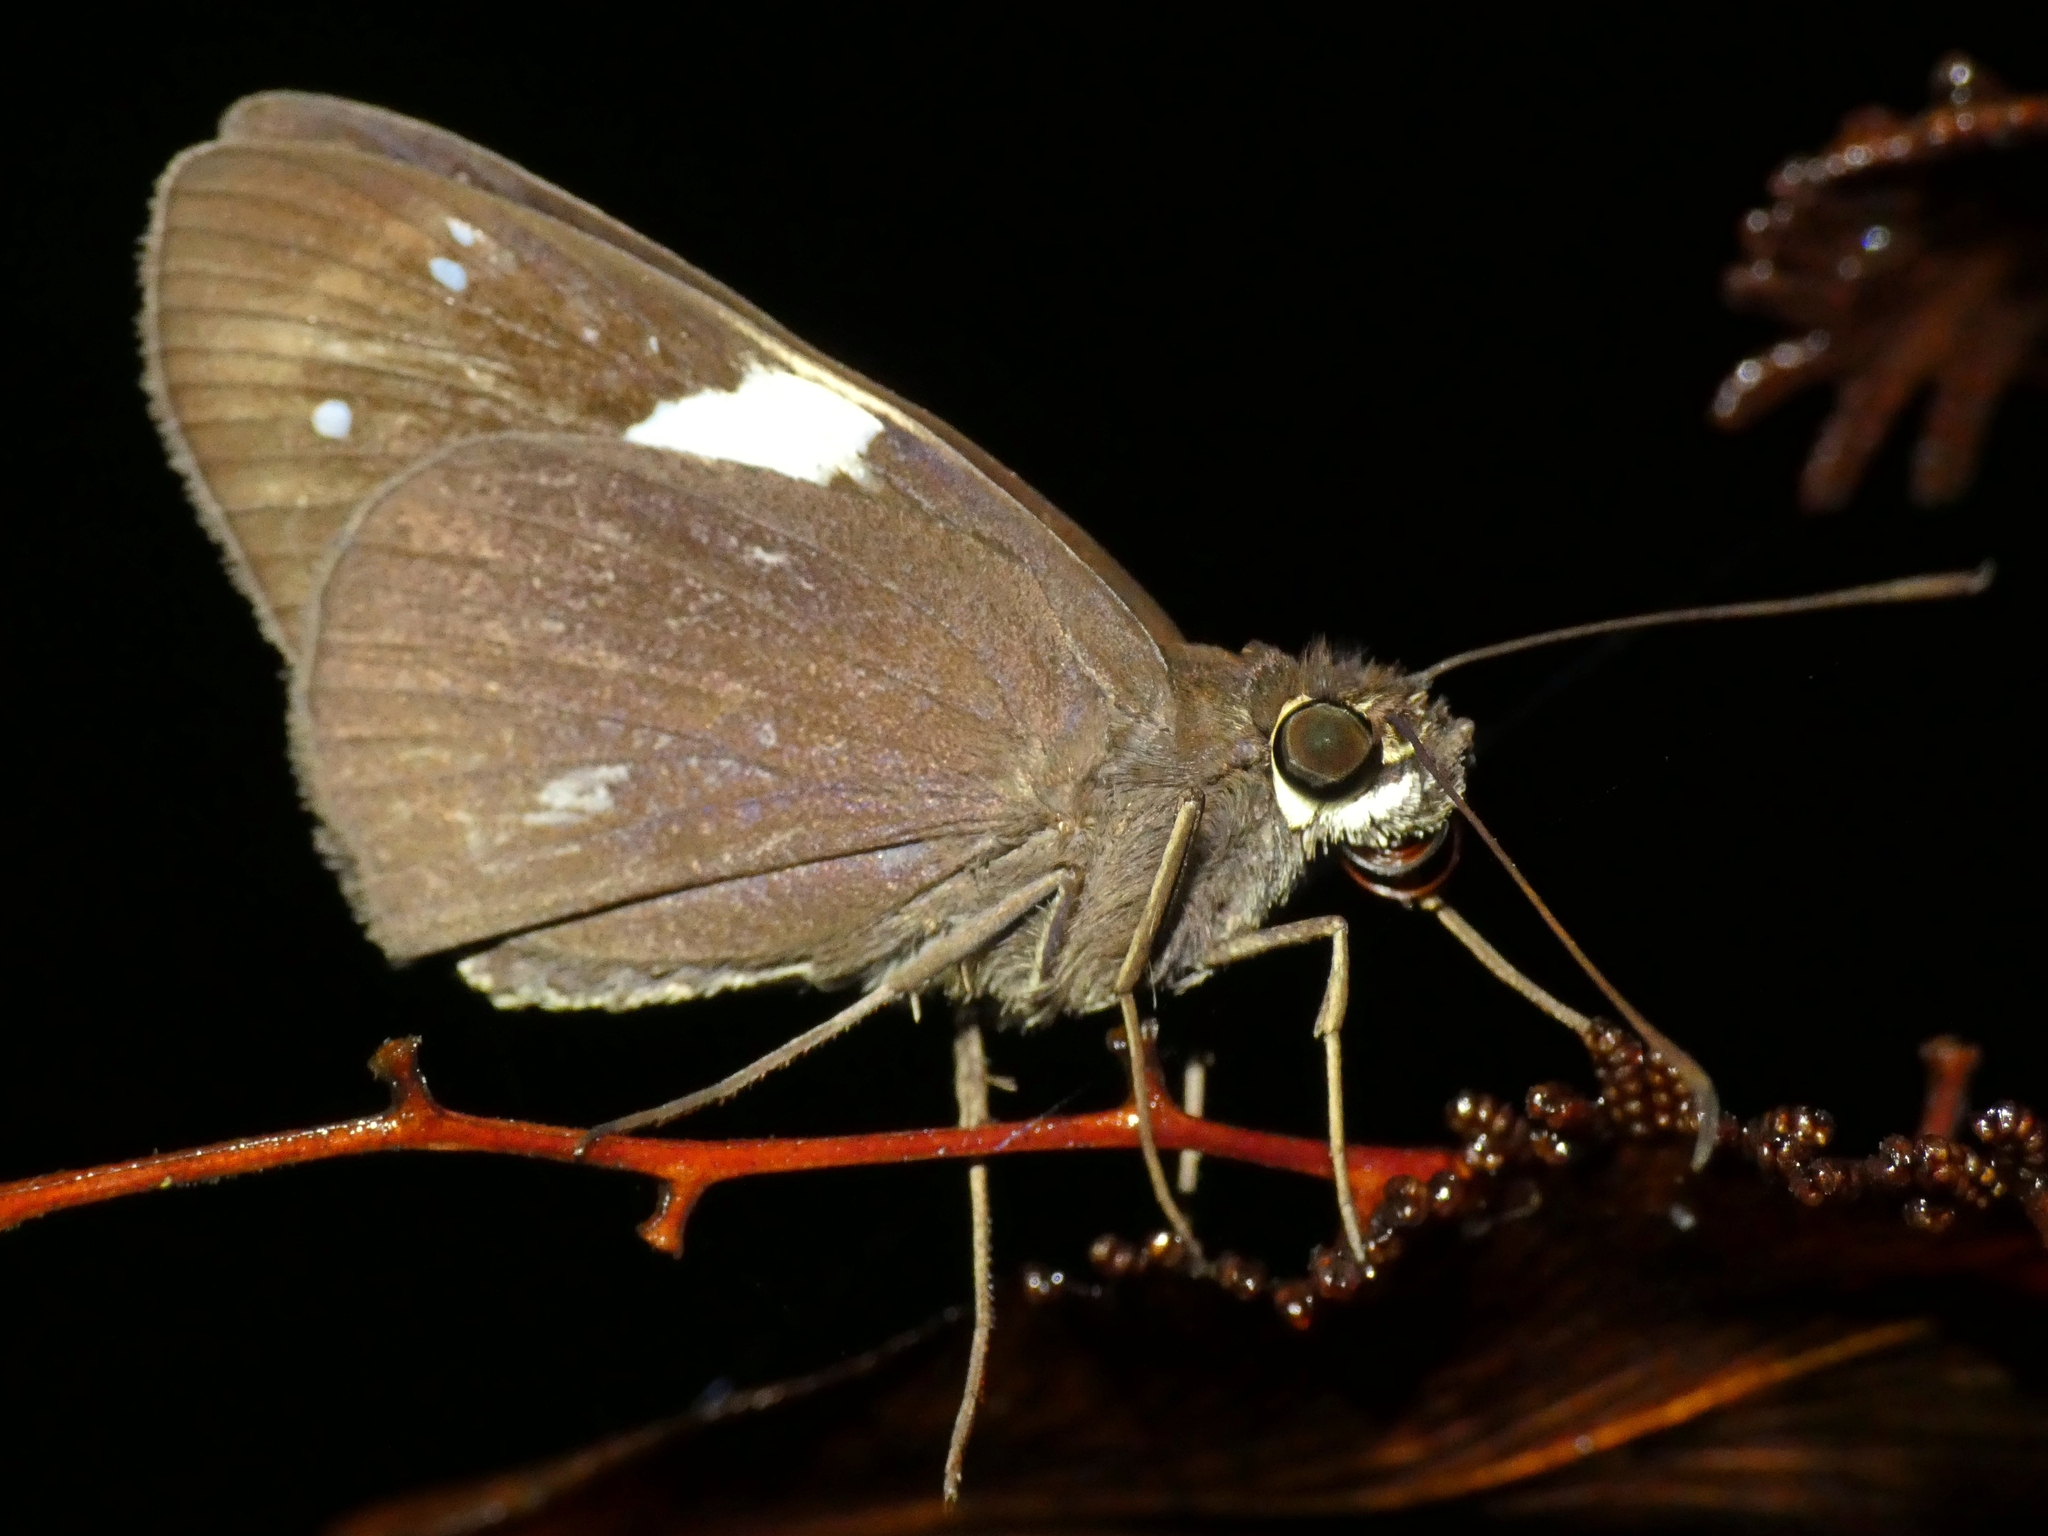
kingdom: Animalia
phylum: Arthropoda
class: Insecta
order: Lepidoptera
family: Hesperiidae
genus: Notocrypta
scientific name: Notocrypta waigensis
